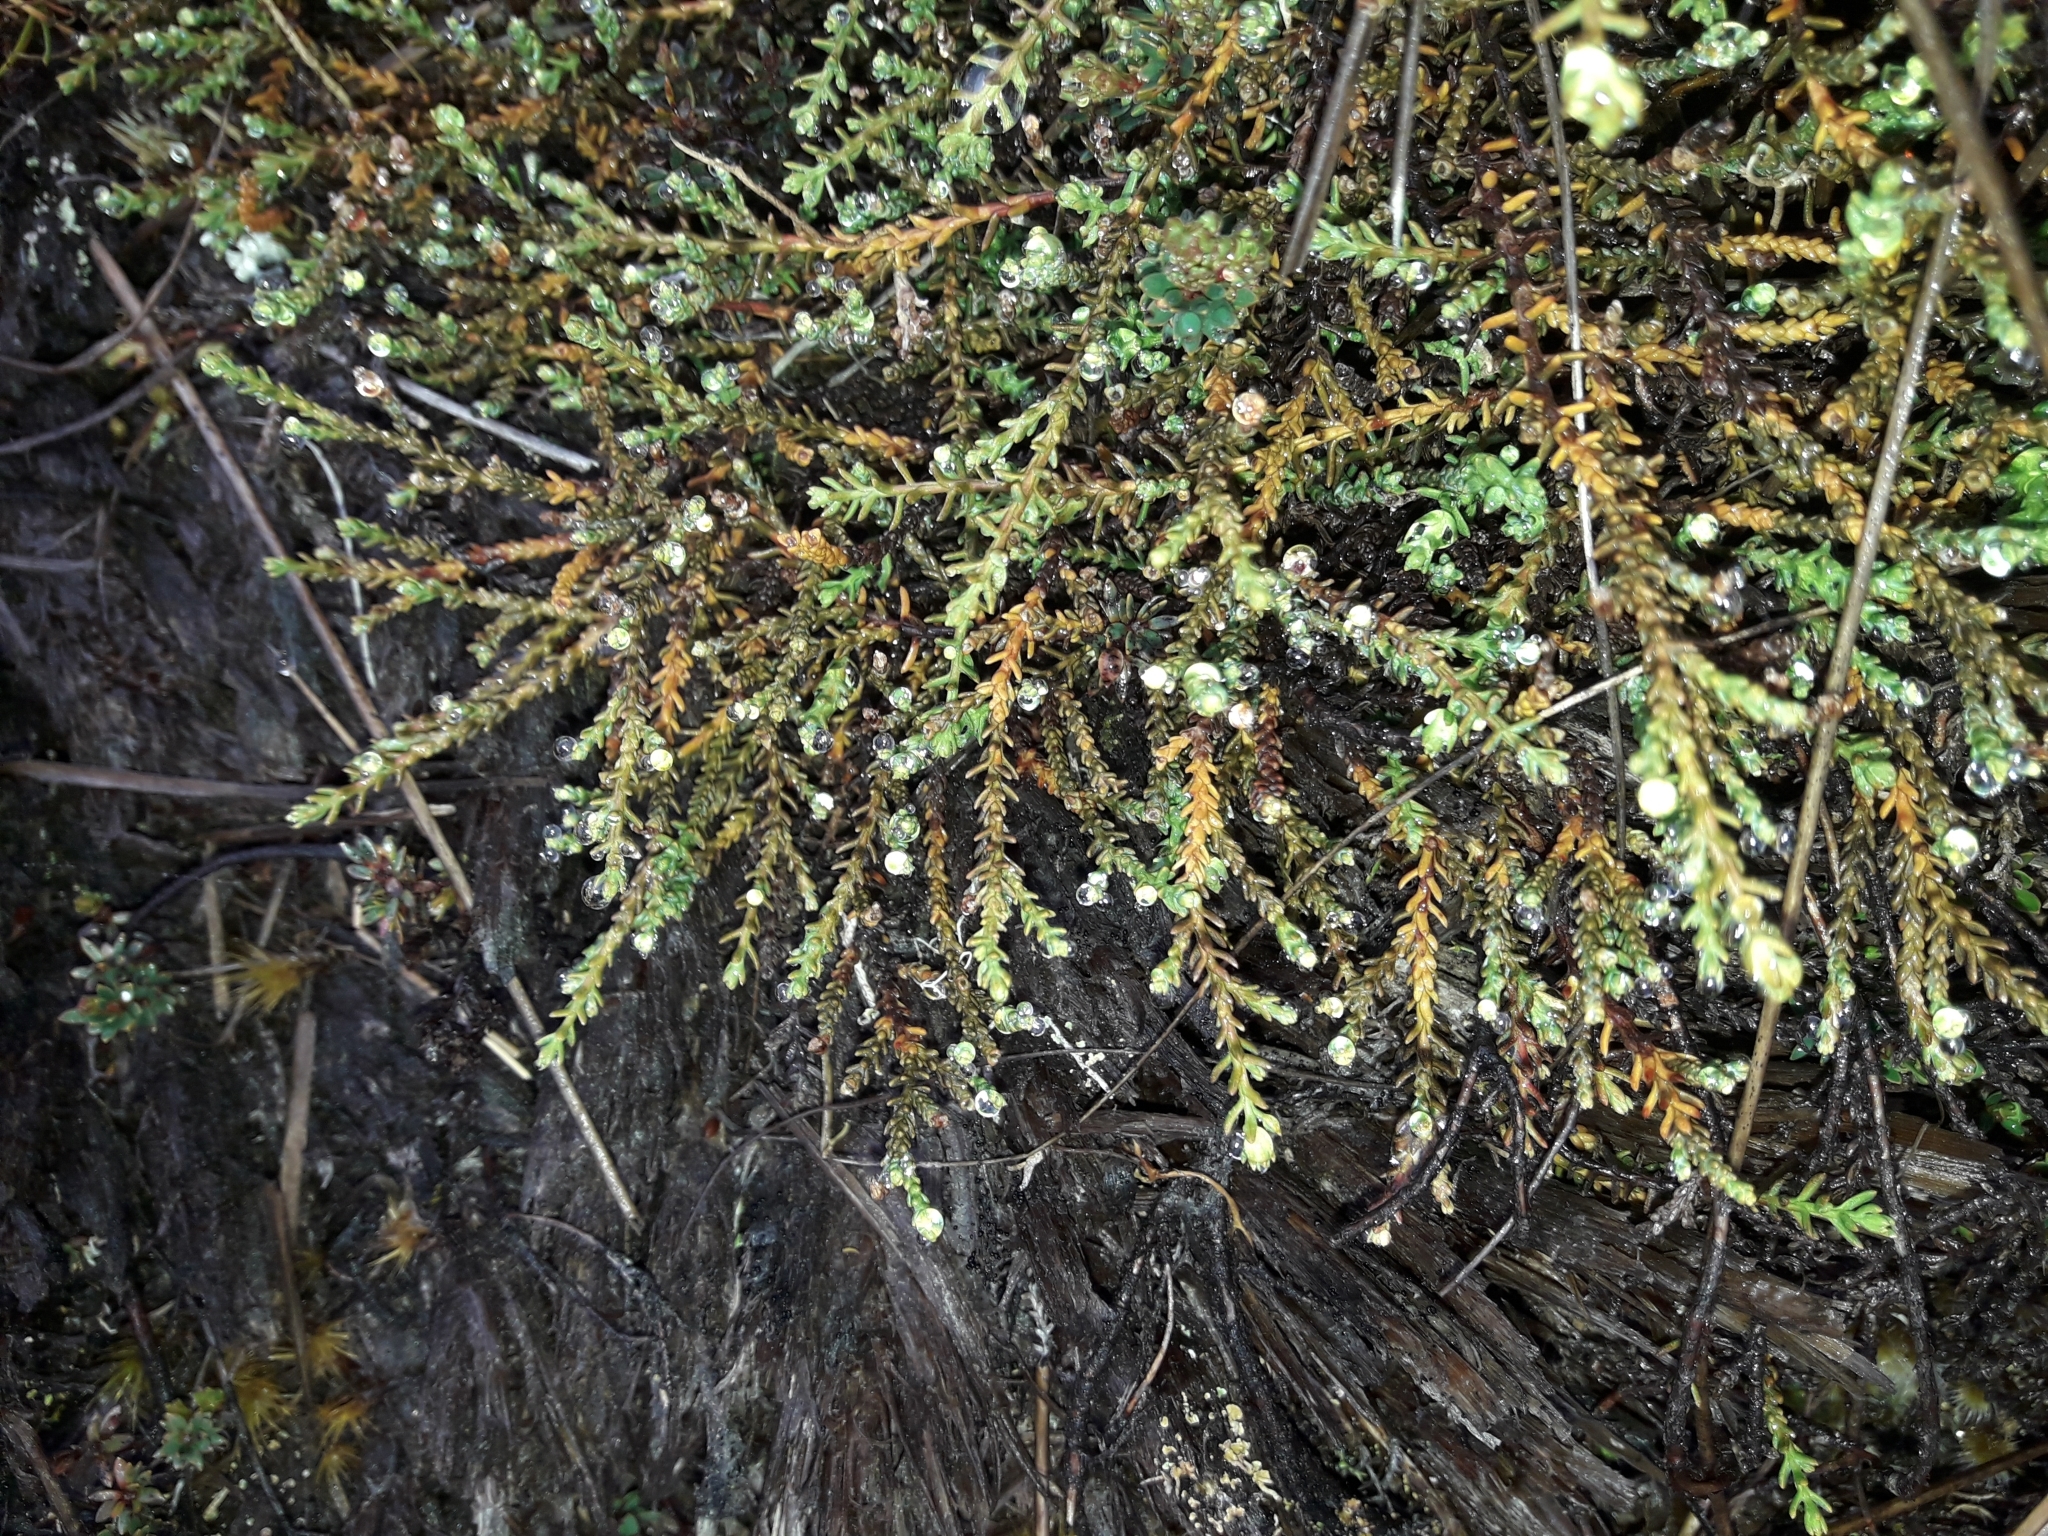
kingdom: Plantae
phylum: Tracheophyta
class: Pinopsida
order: Pinales
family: Podocarpaceae
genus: Lepidothamnus
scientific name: Lepidothamnus laxifolius
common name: Pygmy pine
